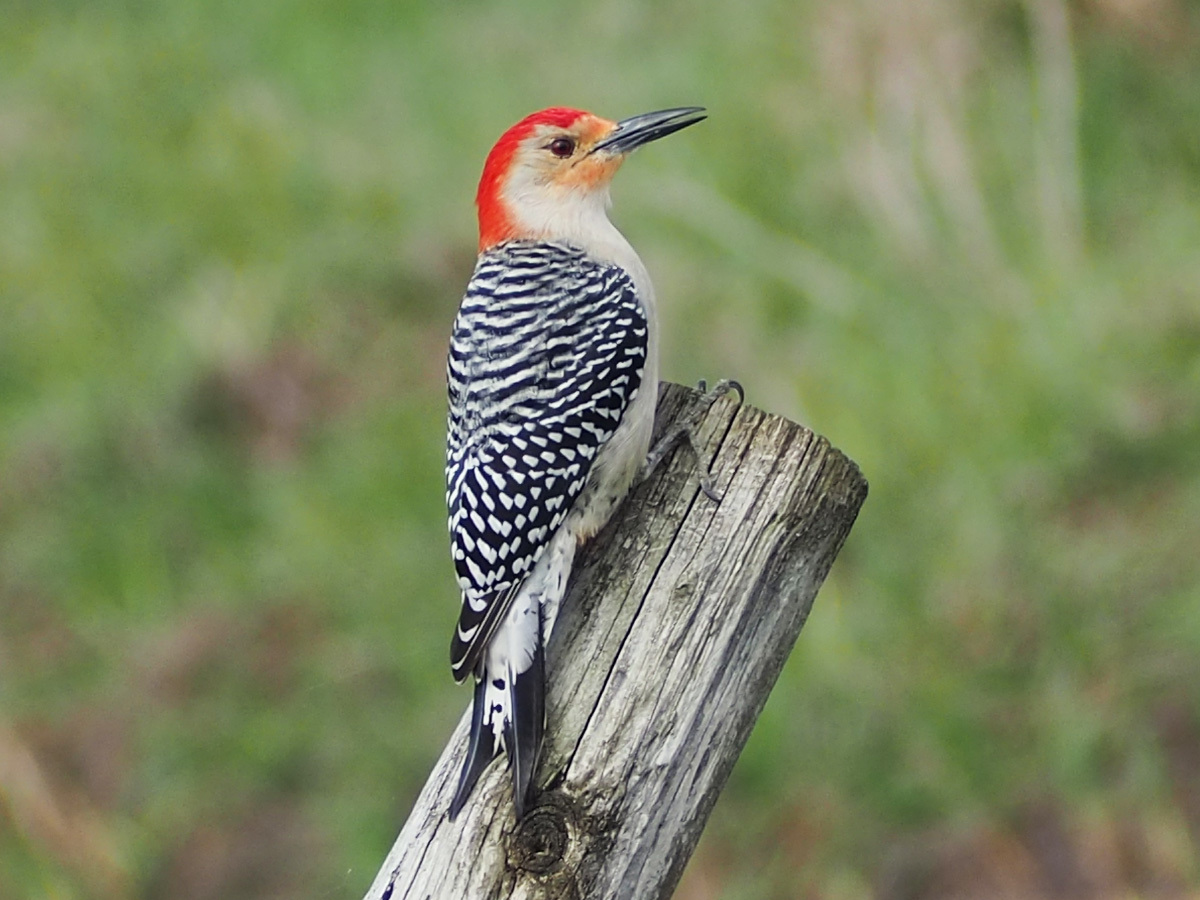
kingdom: Animalia
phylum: Chordata
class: Aves
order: Piciformes
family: Picidae
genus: Melanerpes
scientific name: Melanerpes carolinus
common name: Red-bellied woodpecker
